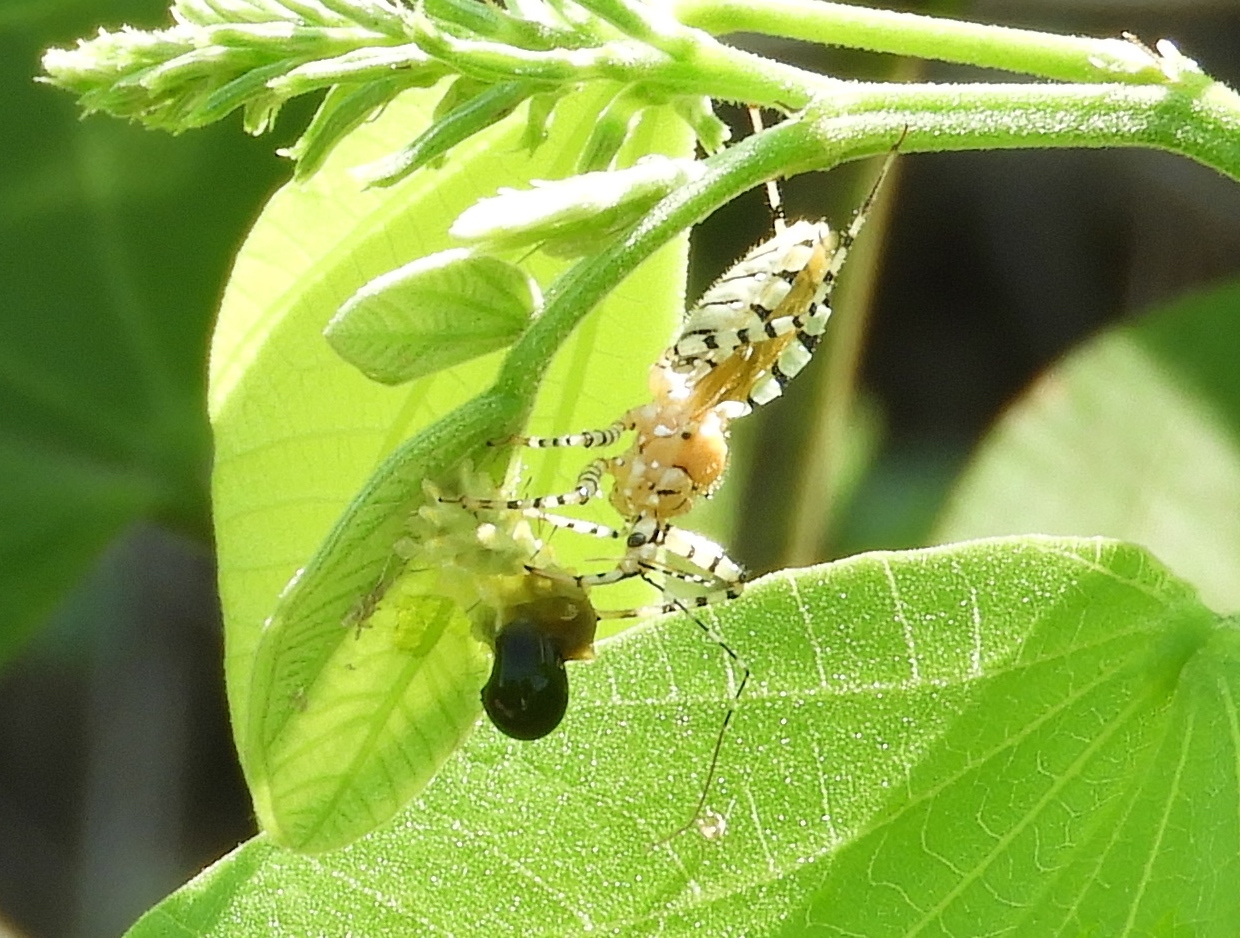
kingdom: Animalia
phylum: Arthropoda
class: Insecta
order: Hemiptera
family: Reduviidae
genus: Pselliopus
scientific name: Pselliopus
